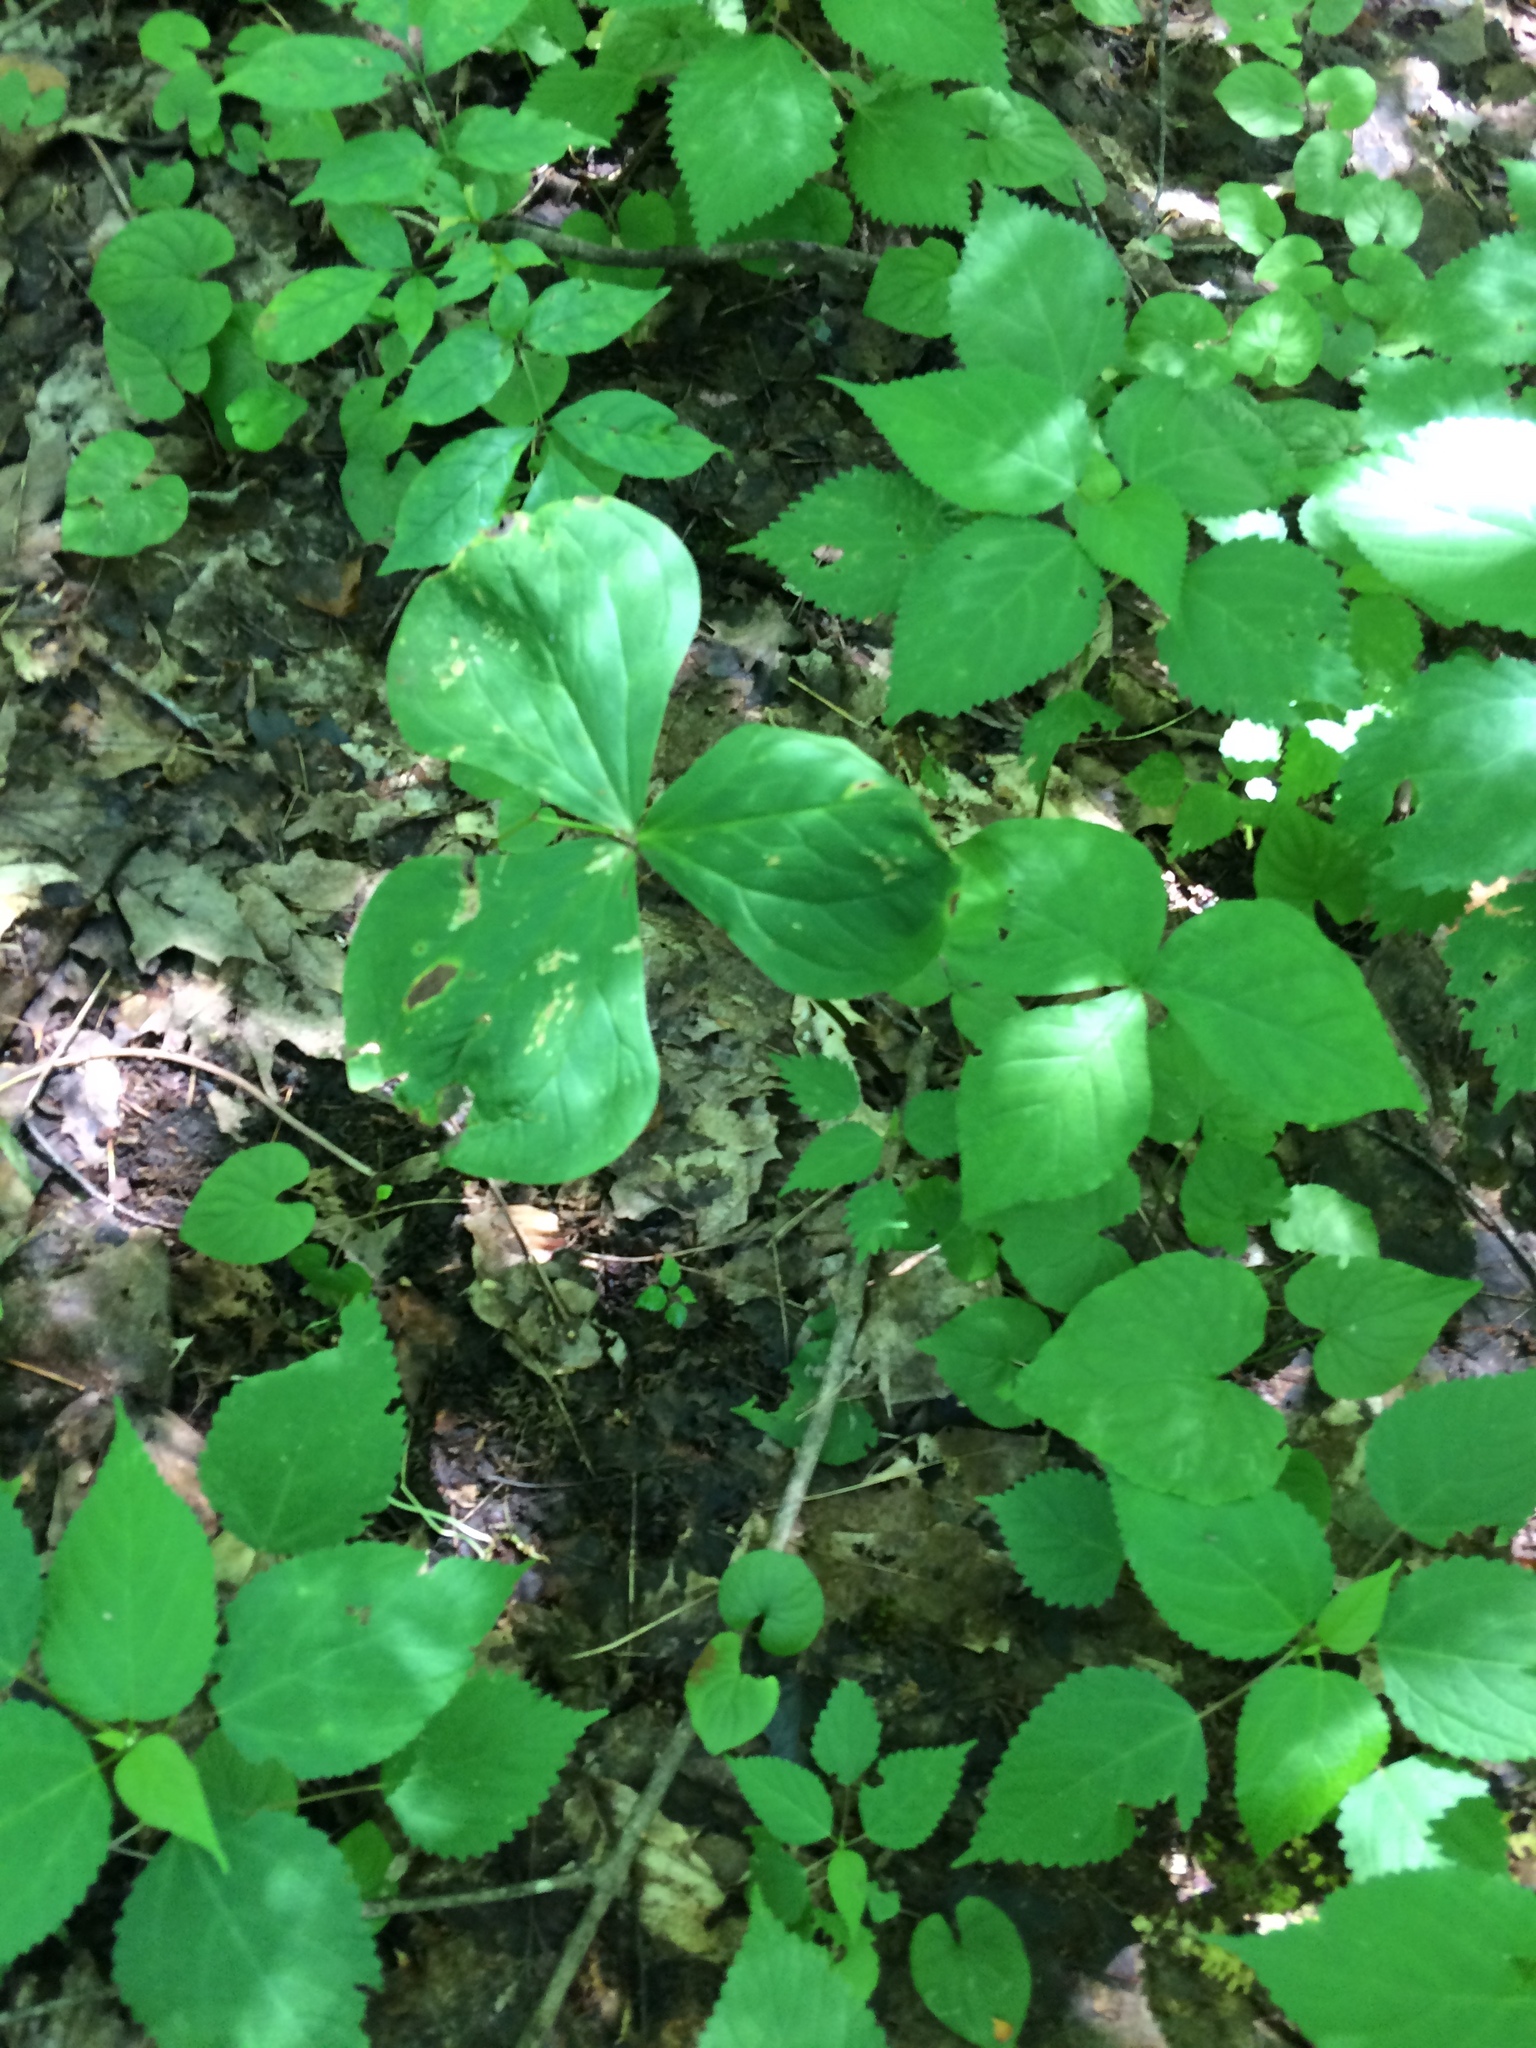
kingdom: Plantae
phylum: Tracheophyta
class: Liliopsida
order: Liliales
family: Melanthiaceae
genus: Trillium
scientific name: Trillium erectum
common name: Purple trillium
